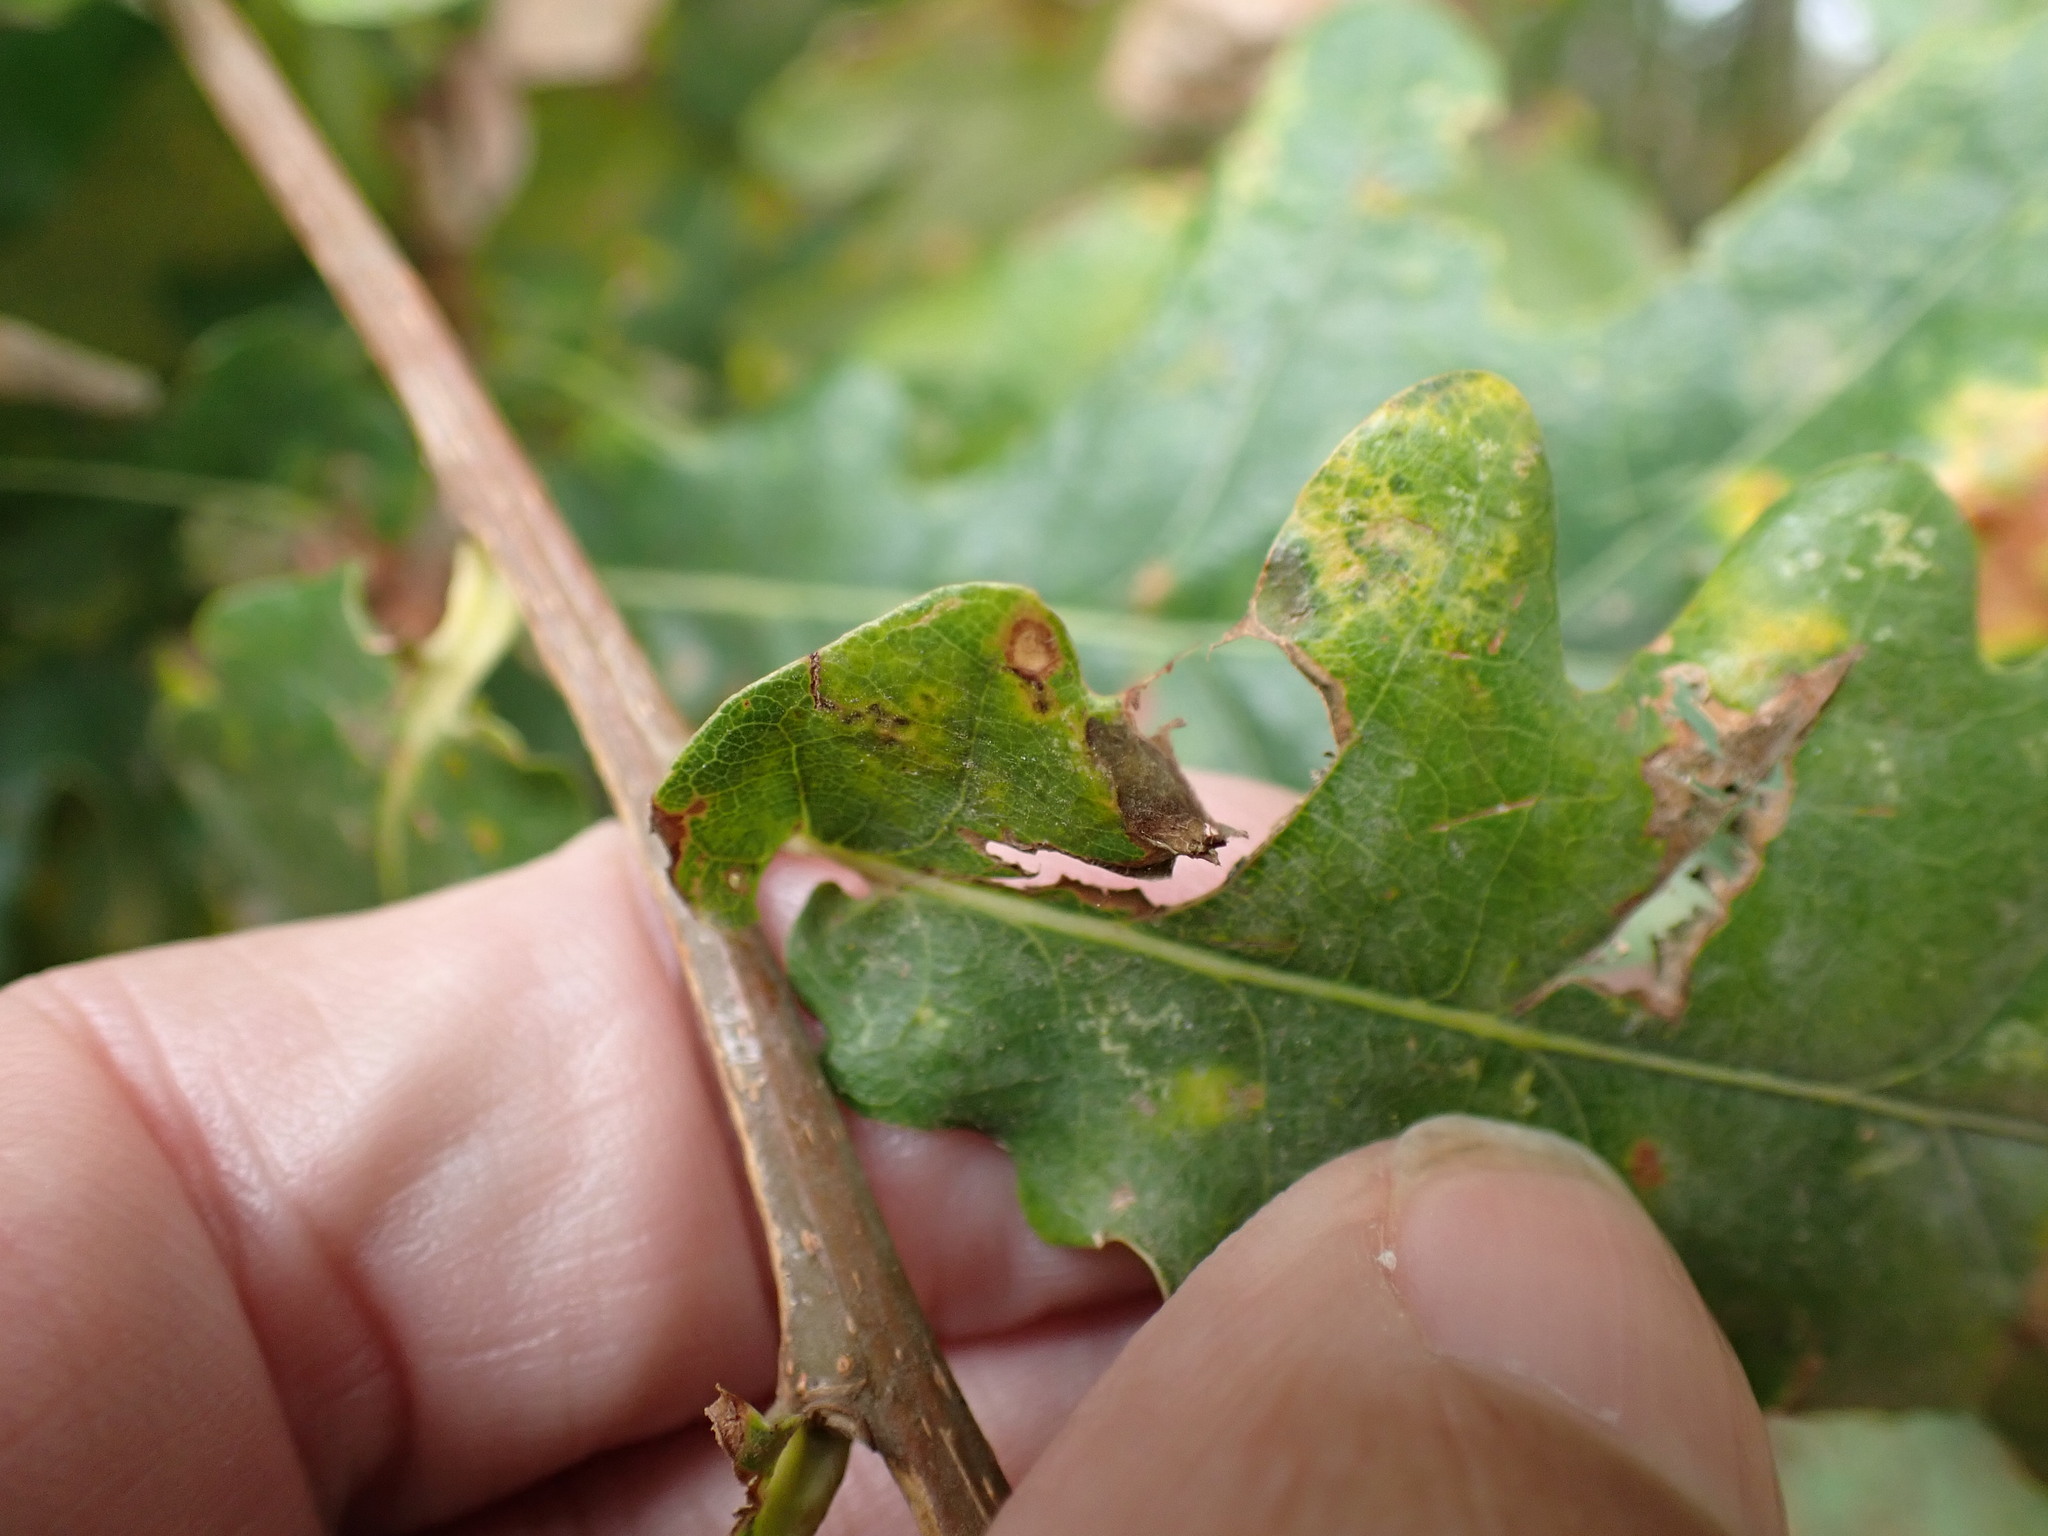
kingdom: Plantae
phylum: Tracheophyta
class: Magnoliopsida
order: Fagales
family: Fagaceae
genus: Quercus
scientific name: Quercus robur
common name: Pedunculate oak
